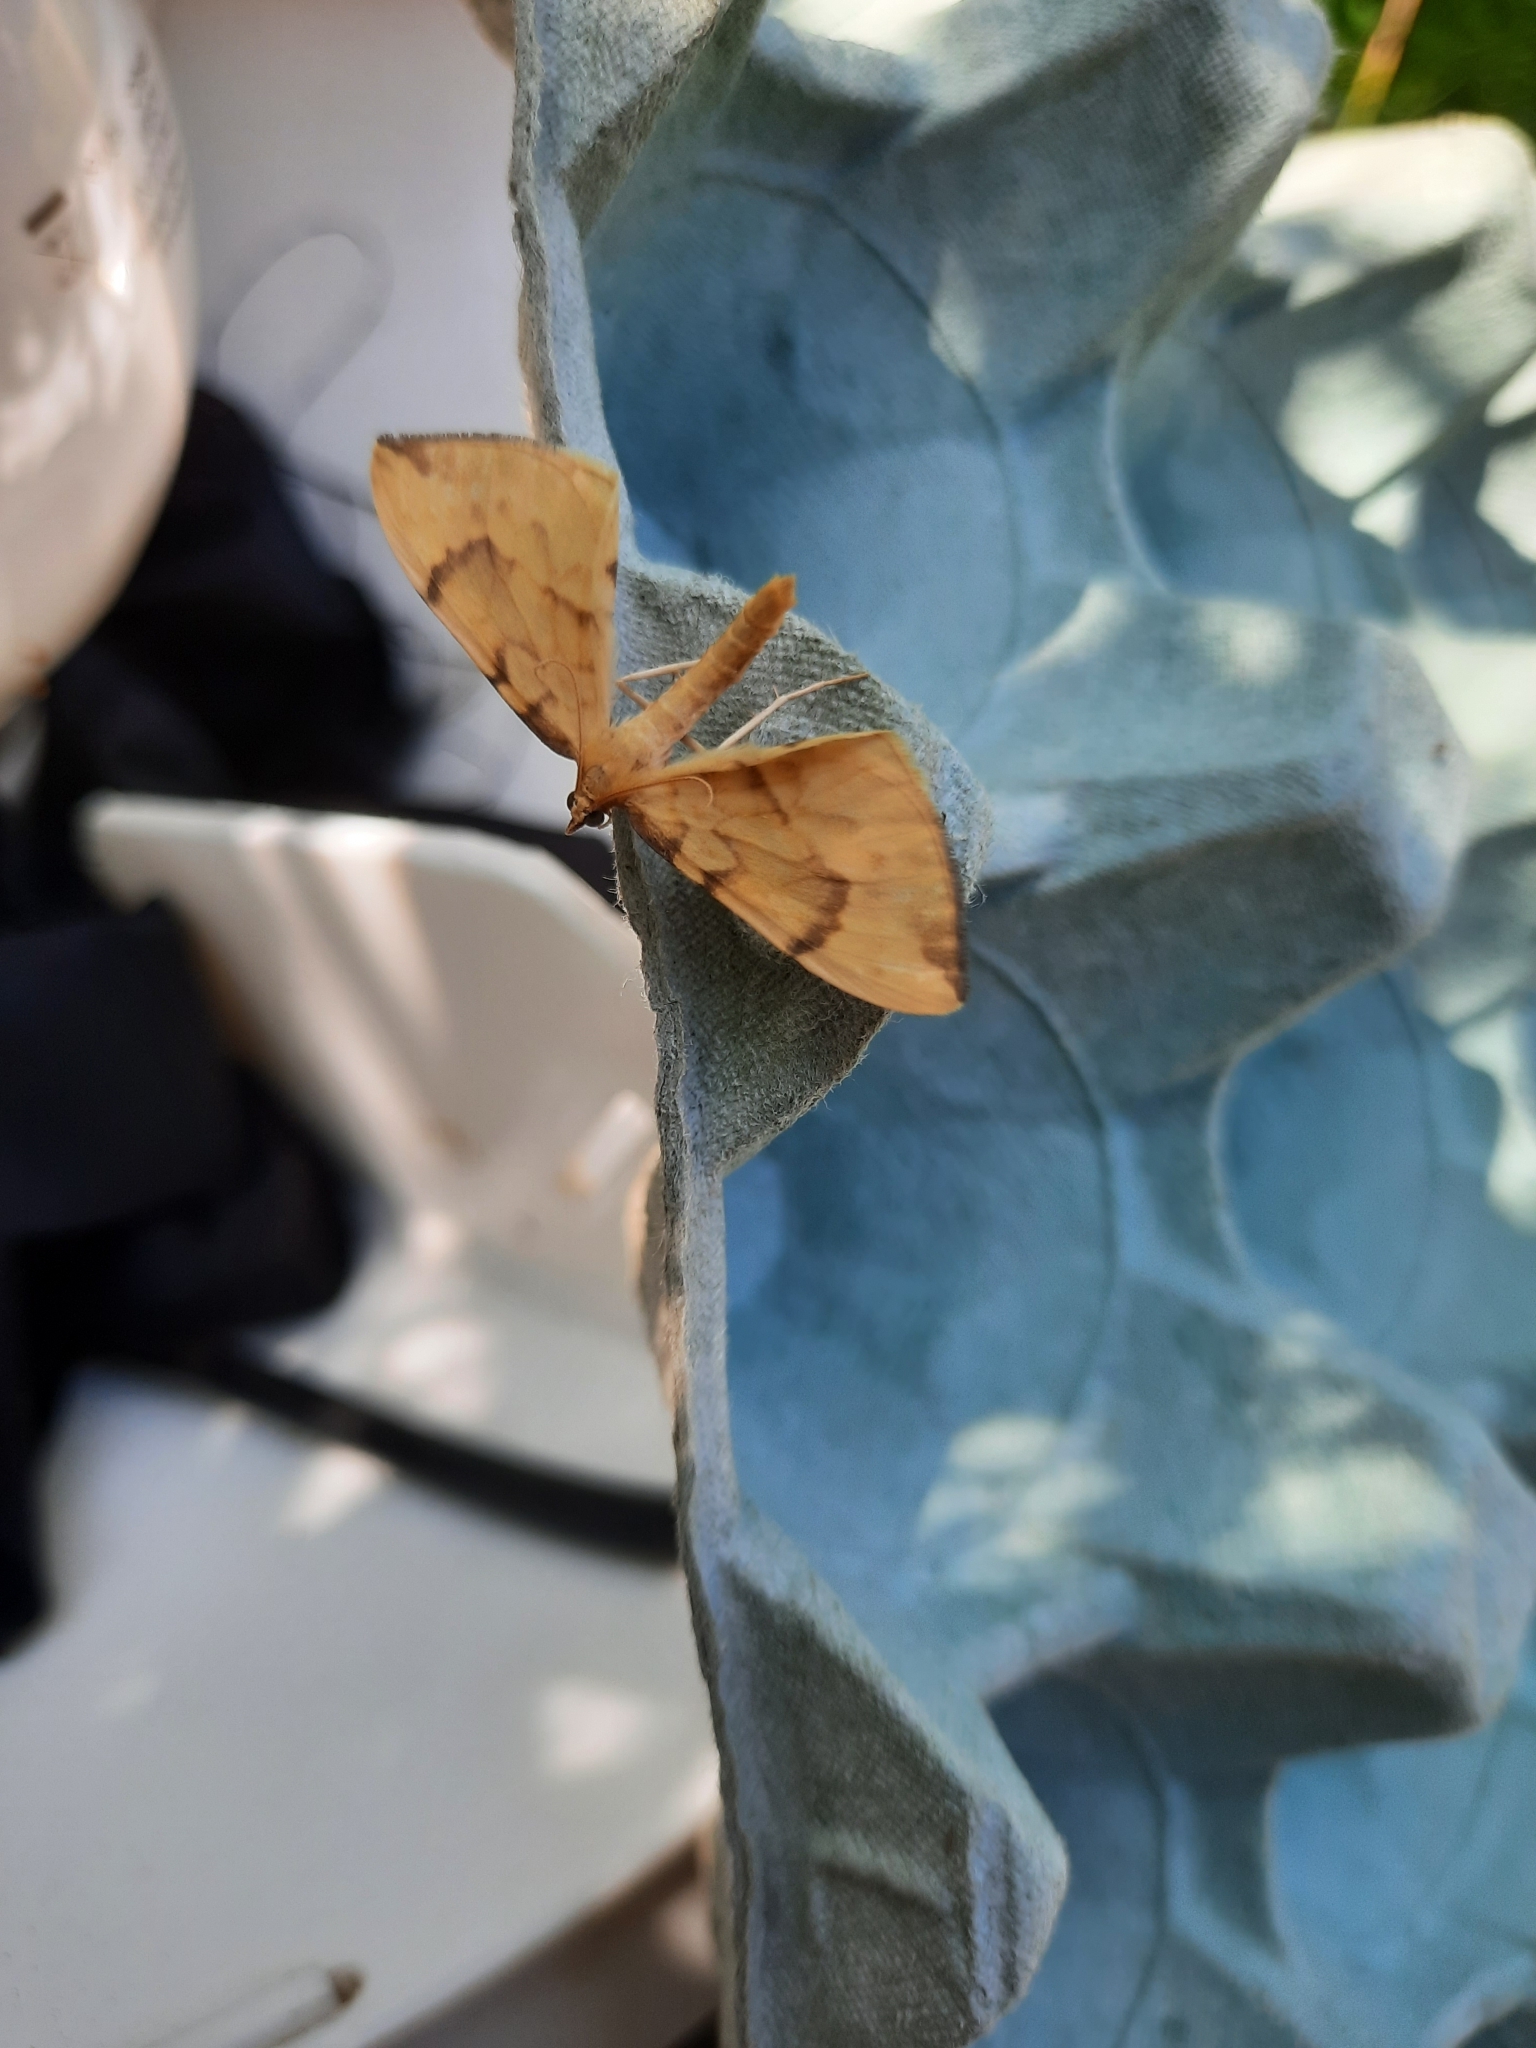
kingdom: Animalia
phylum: Arthropoda
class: Insecta
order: Lepidoptera
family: Geometridae
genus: Eulithis
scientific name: Eulithis pyraliata
